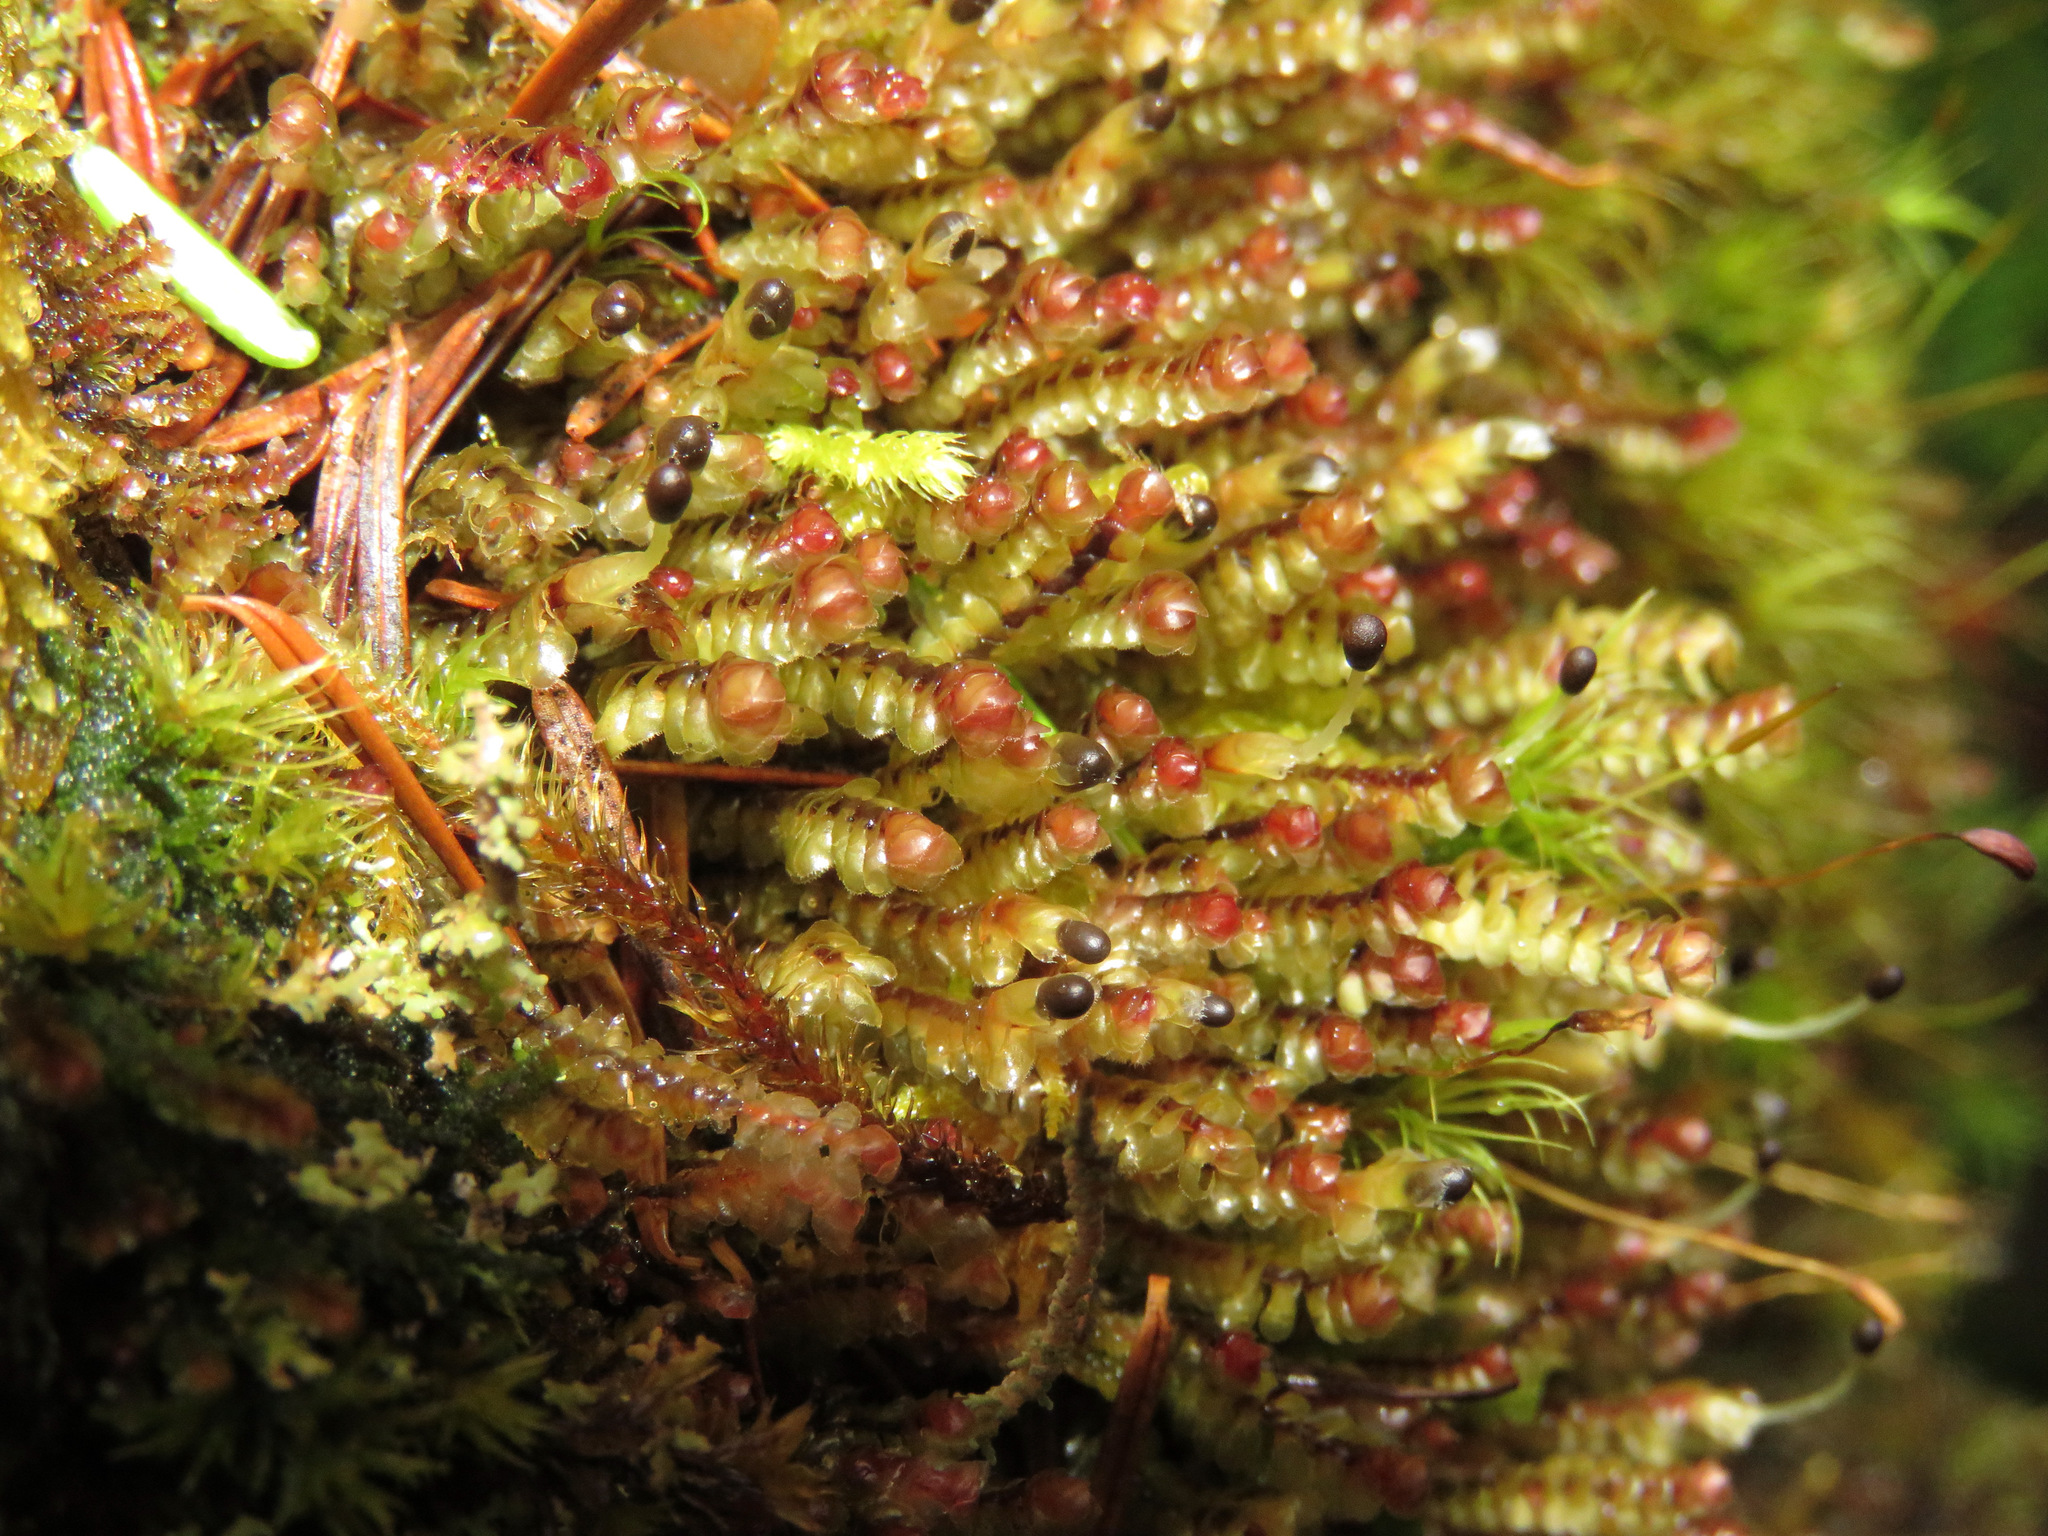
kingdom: Plantae
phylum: Marchantiophyta
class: Jungermanniopsida
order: Jungermanniales
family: Scapaniaceae
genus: Scapania
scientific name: Scapania bolanderi
